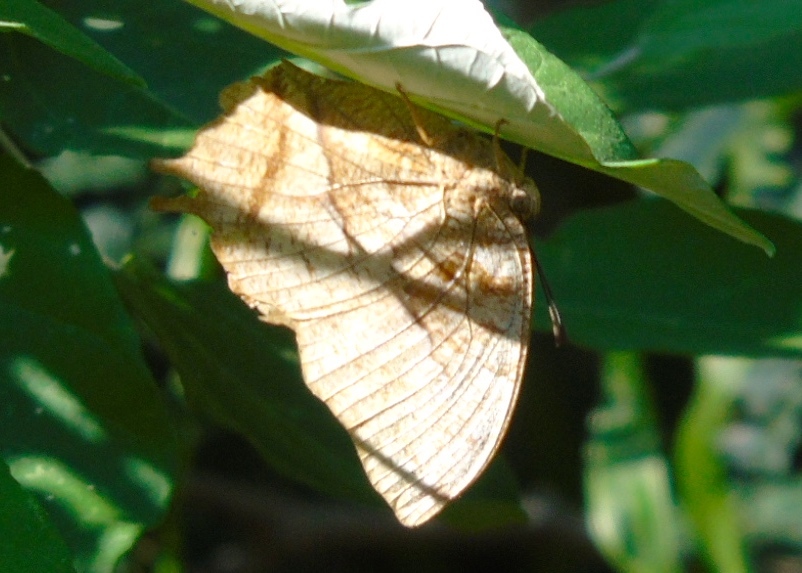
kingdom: Animalia
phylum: Arthropoda
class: Insecta
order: Lepidoptera
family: Nymphalidae
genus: Fountainea
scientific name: Fountainea
